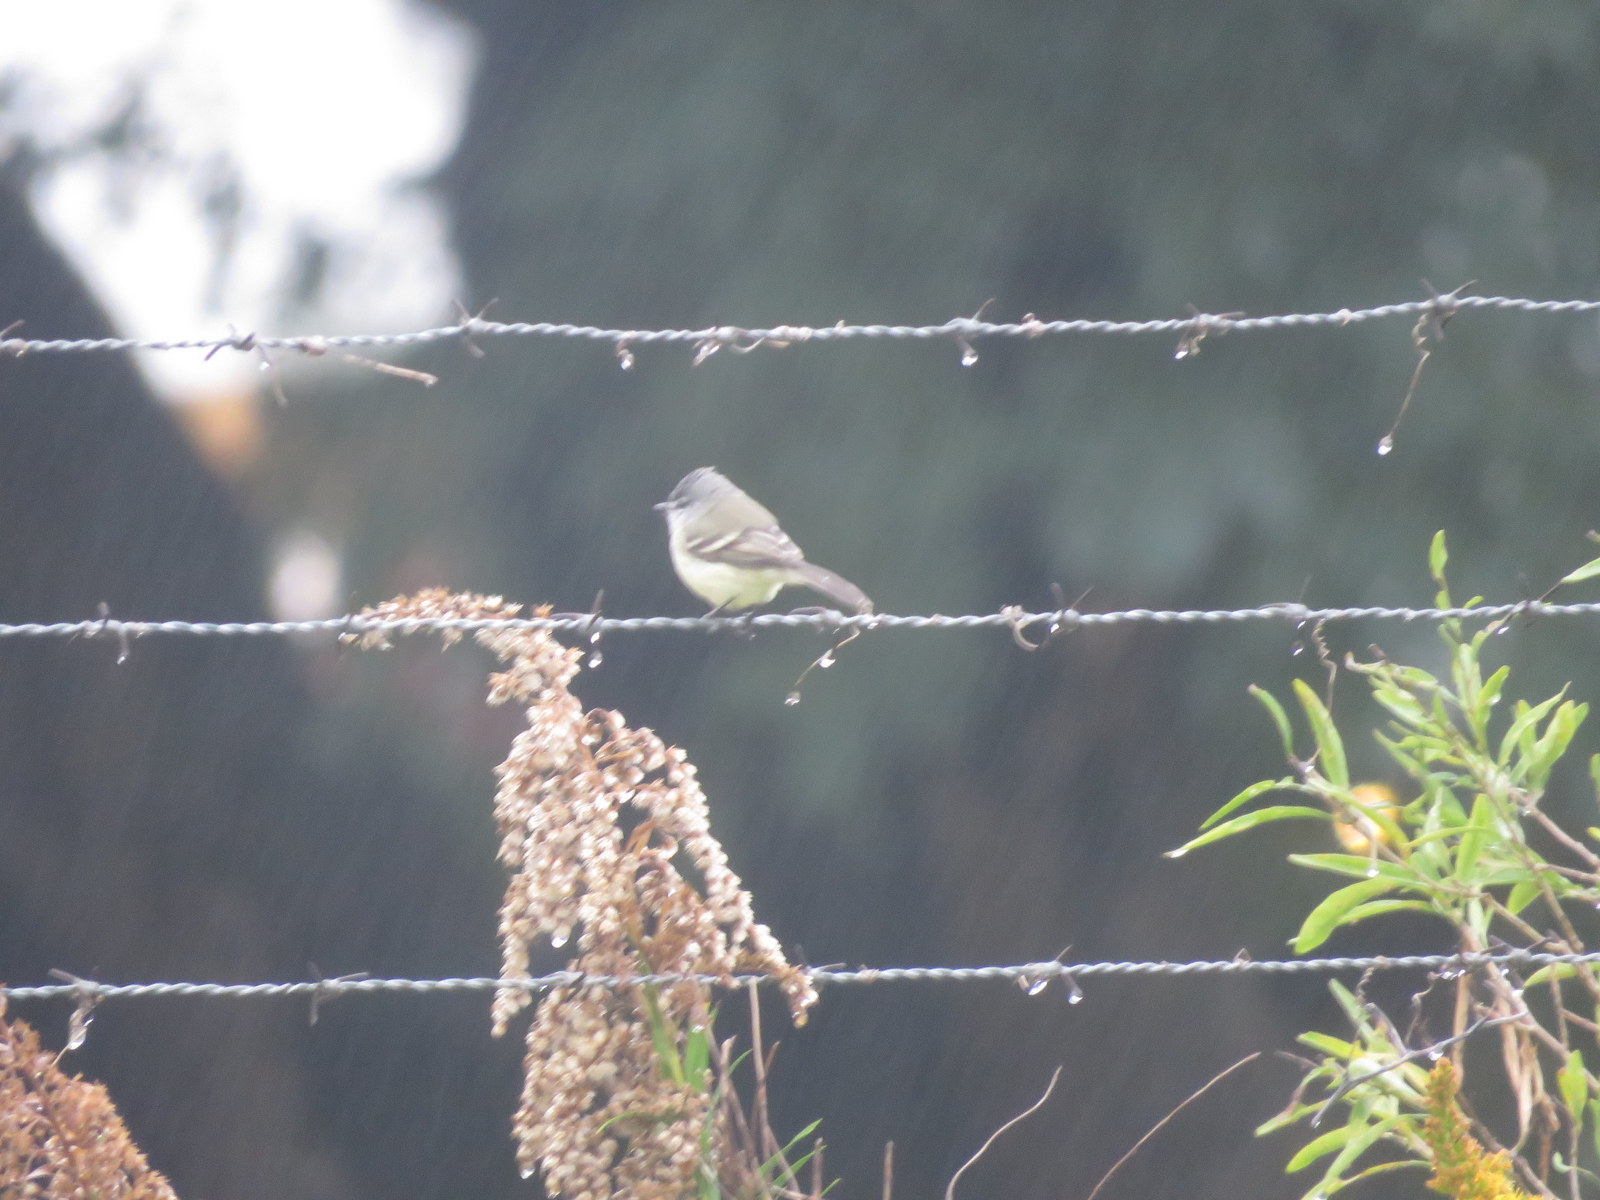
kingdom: Animalia
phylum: Chordata
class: Aves
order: Passeriformes
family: Tyrannidae
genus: Serpophaga
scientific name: Serpophaga subcristata
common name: White-crested tyrannulet
